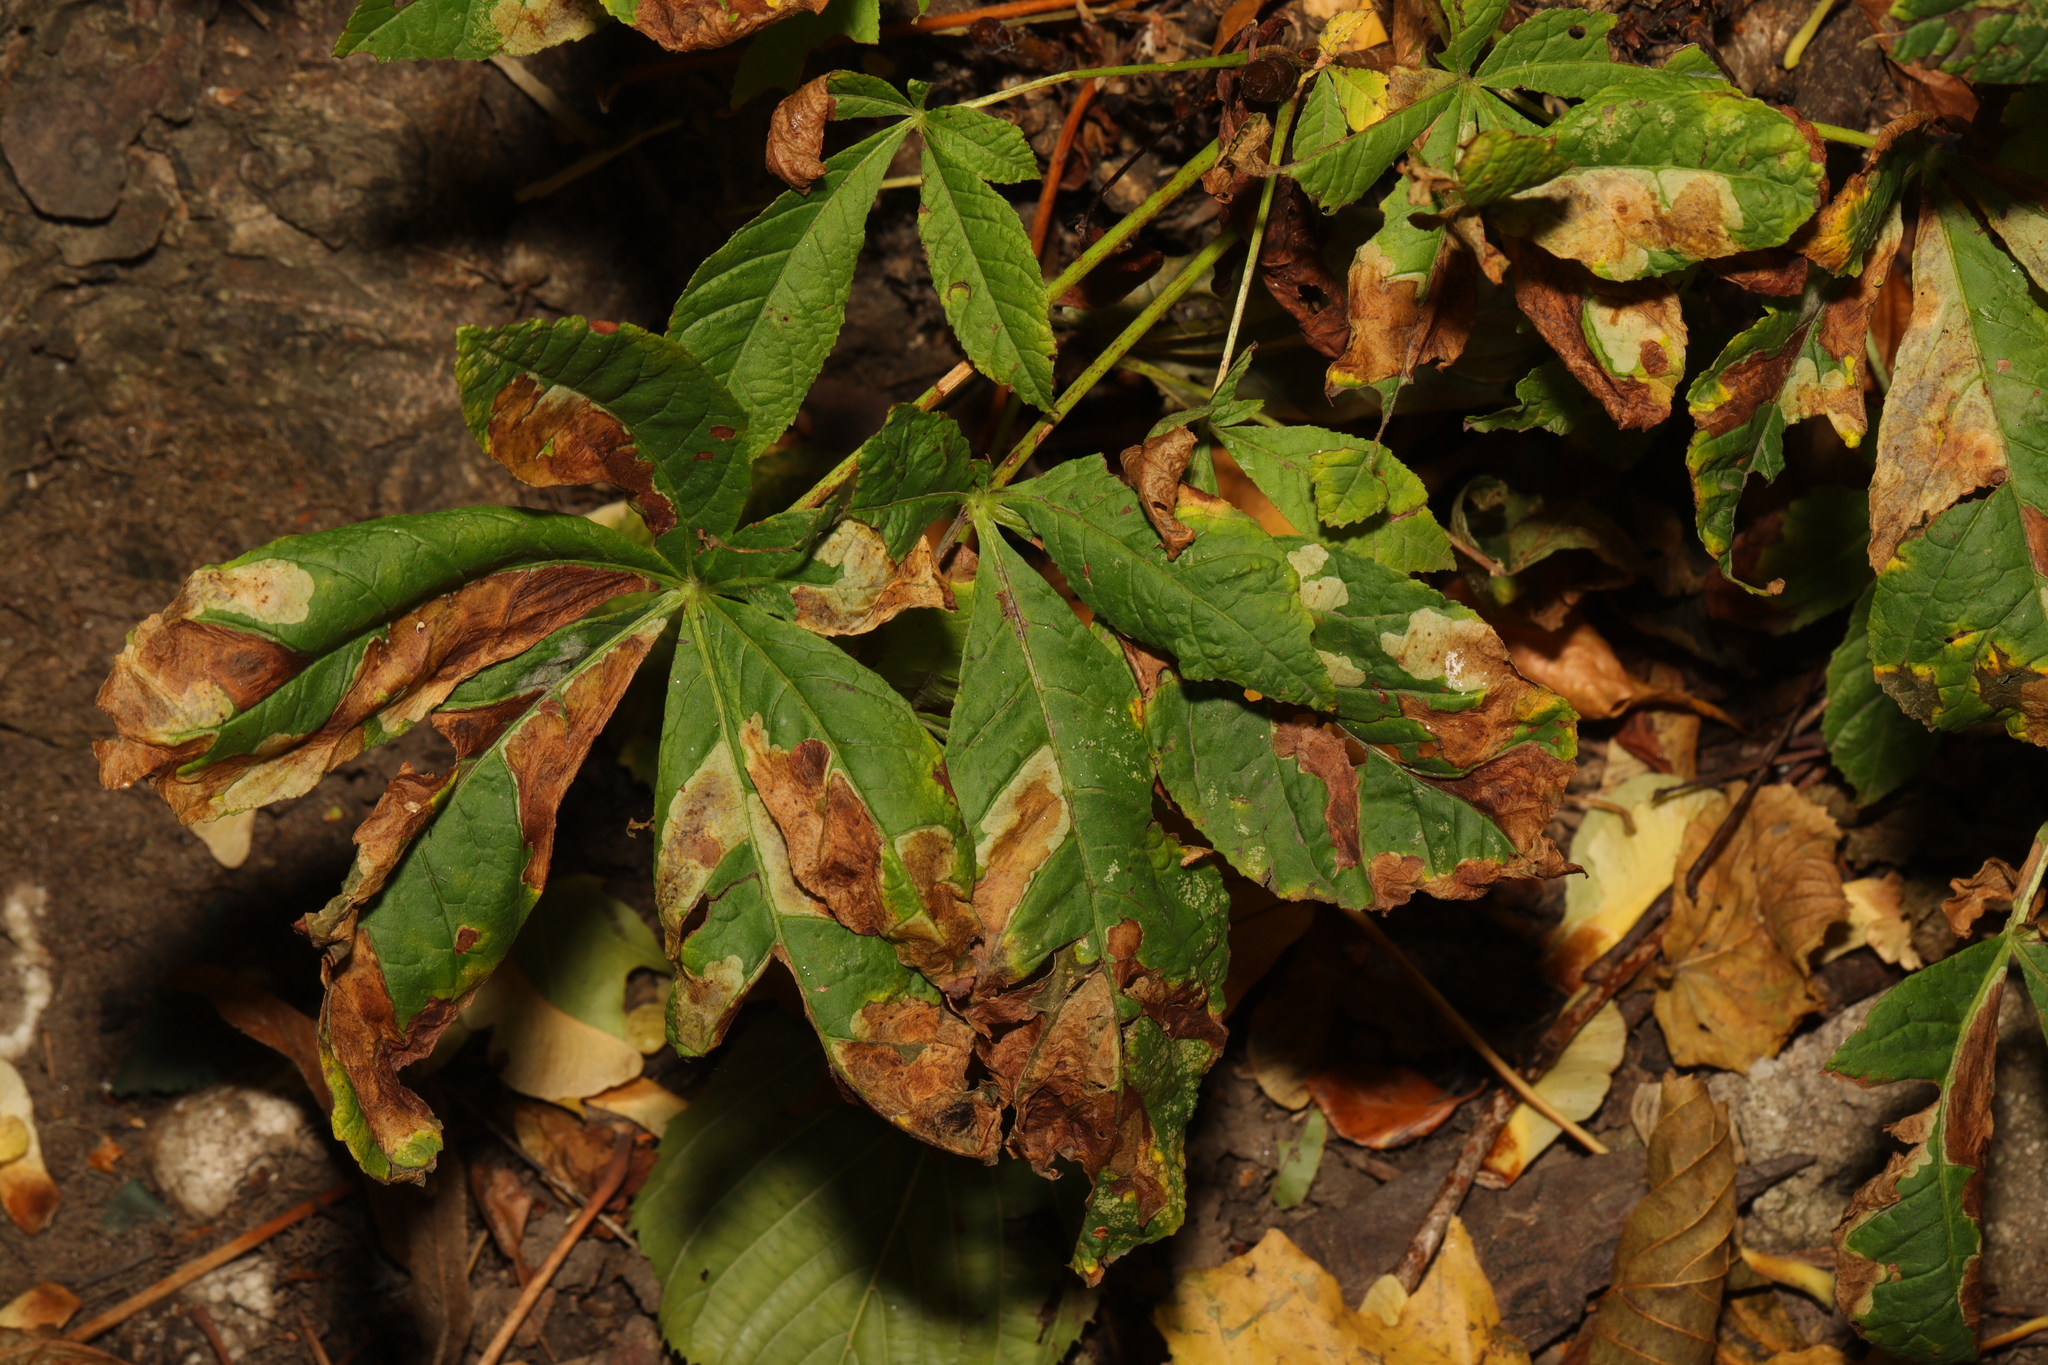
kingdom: Plantae
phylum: Tracheophyta
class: Magnoliopsida
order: Sapindales
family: Sapindaceae
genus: Aesculus
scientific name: Aesculus hippocastanum
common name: Horse-chestnut
